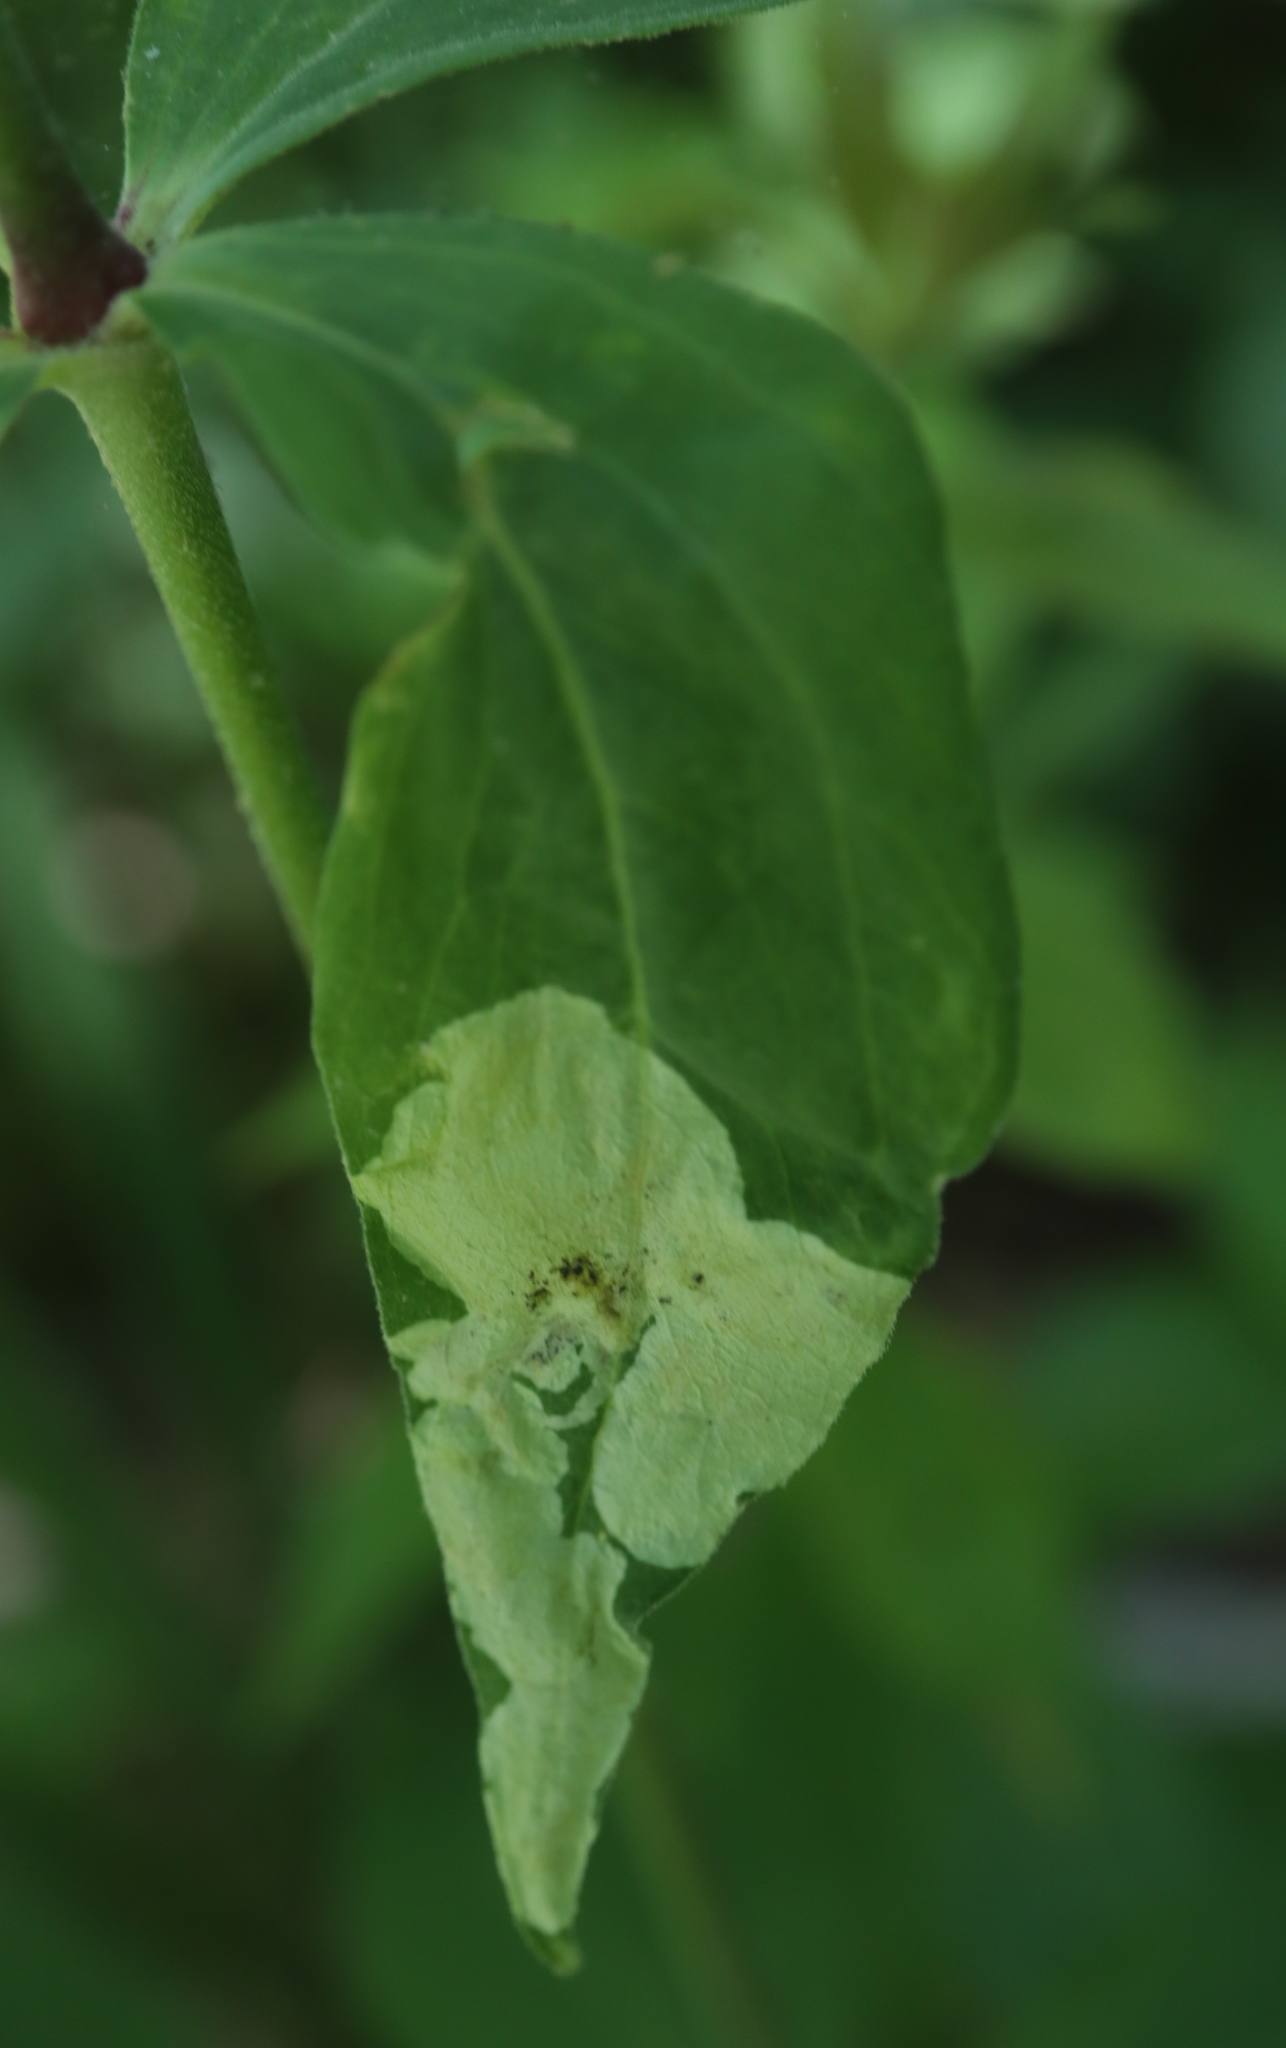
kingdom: Animalia
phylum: Arthropoda
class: Insecta
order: Diptera
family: Agromyzidae
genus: Amauromyza
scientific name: Amauromyza flavifrons
